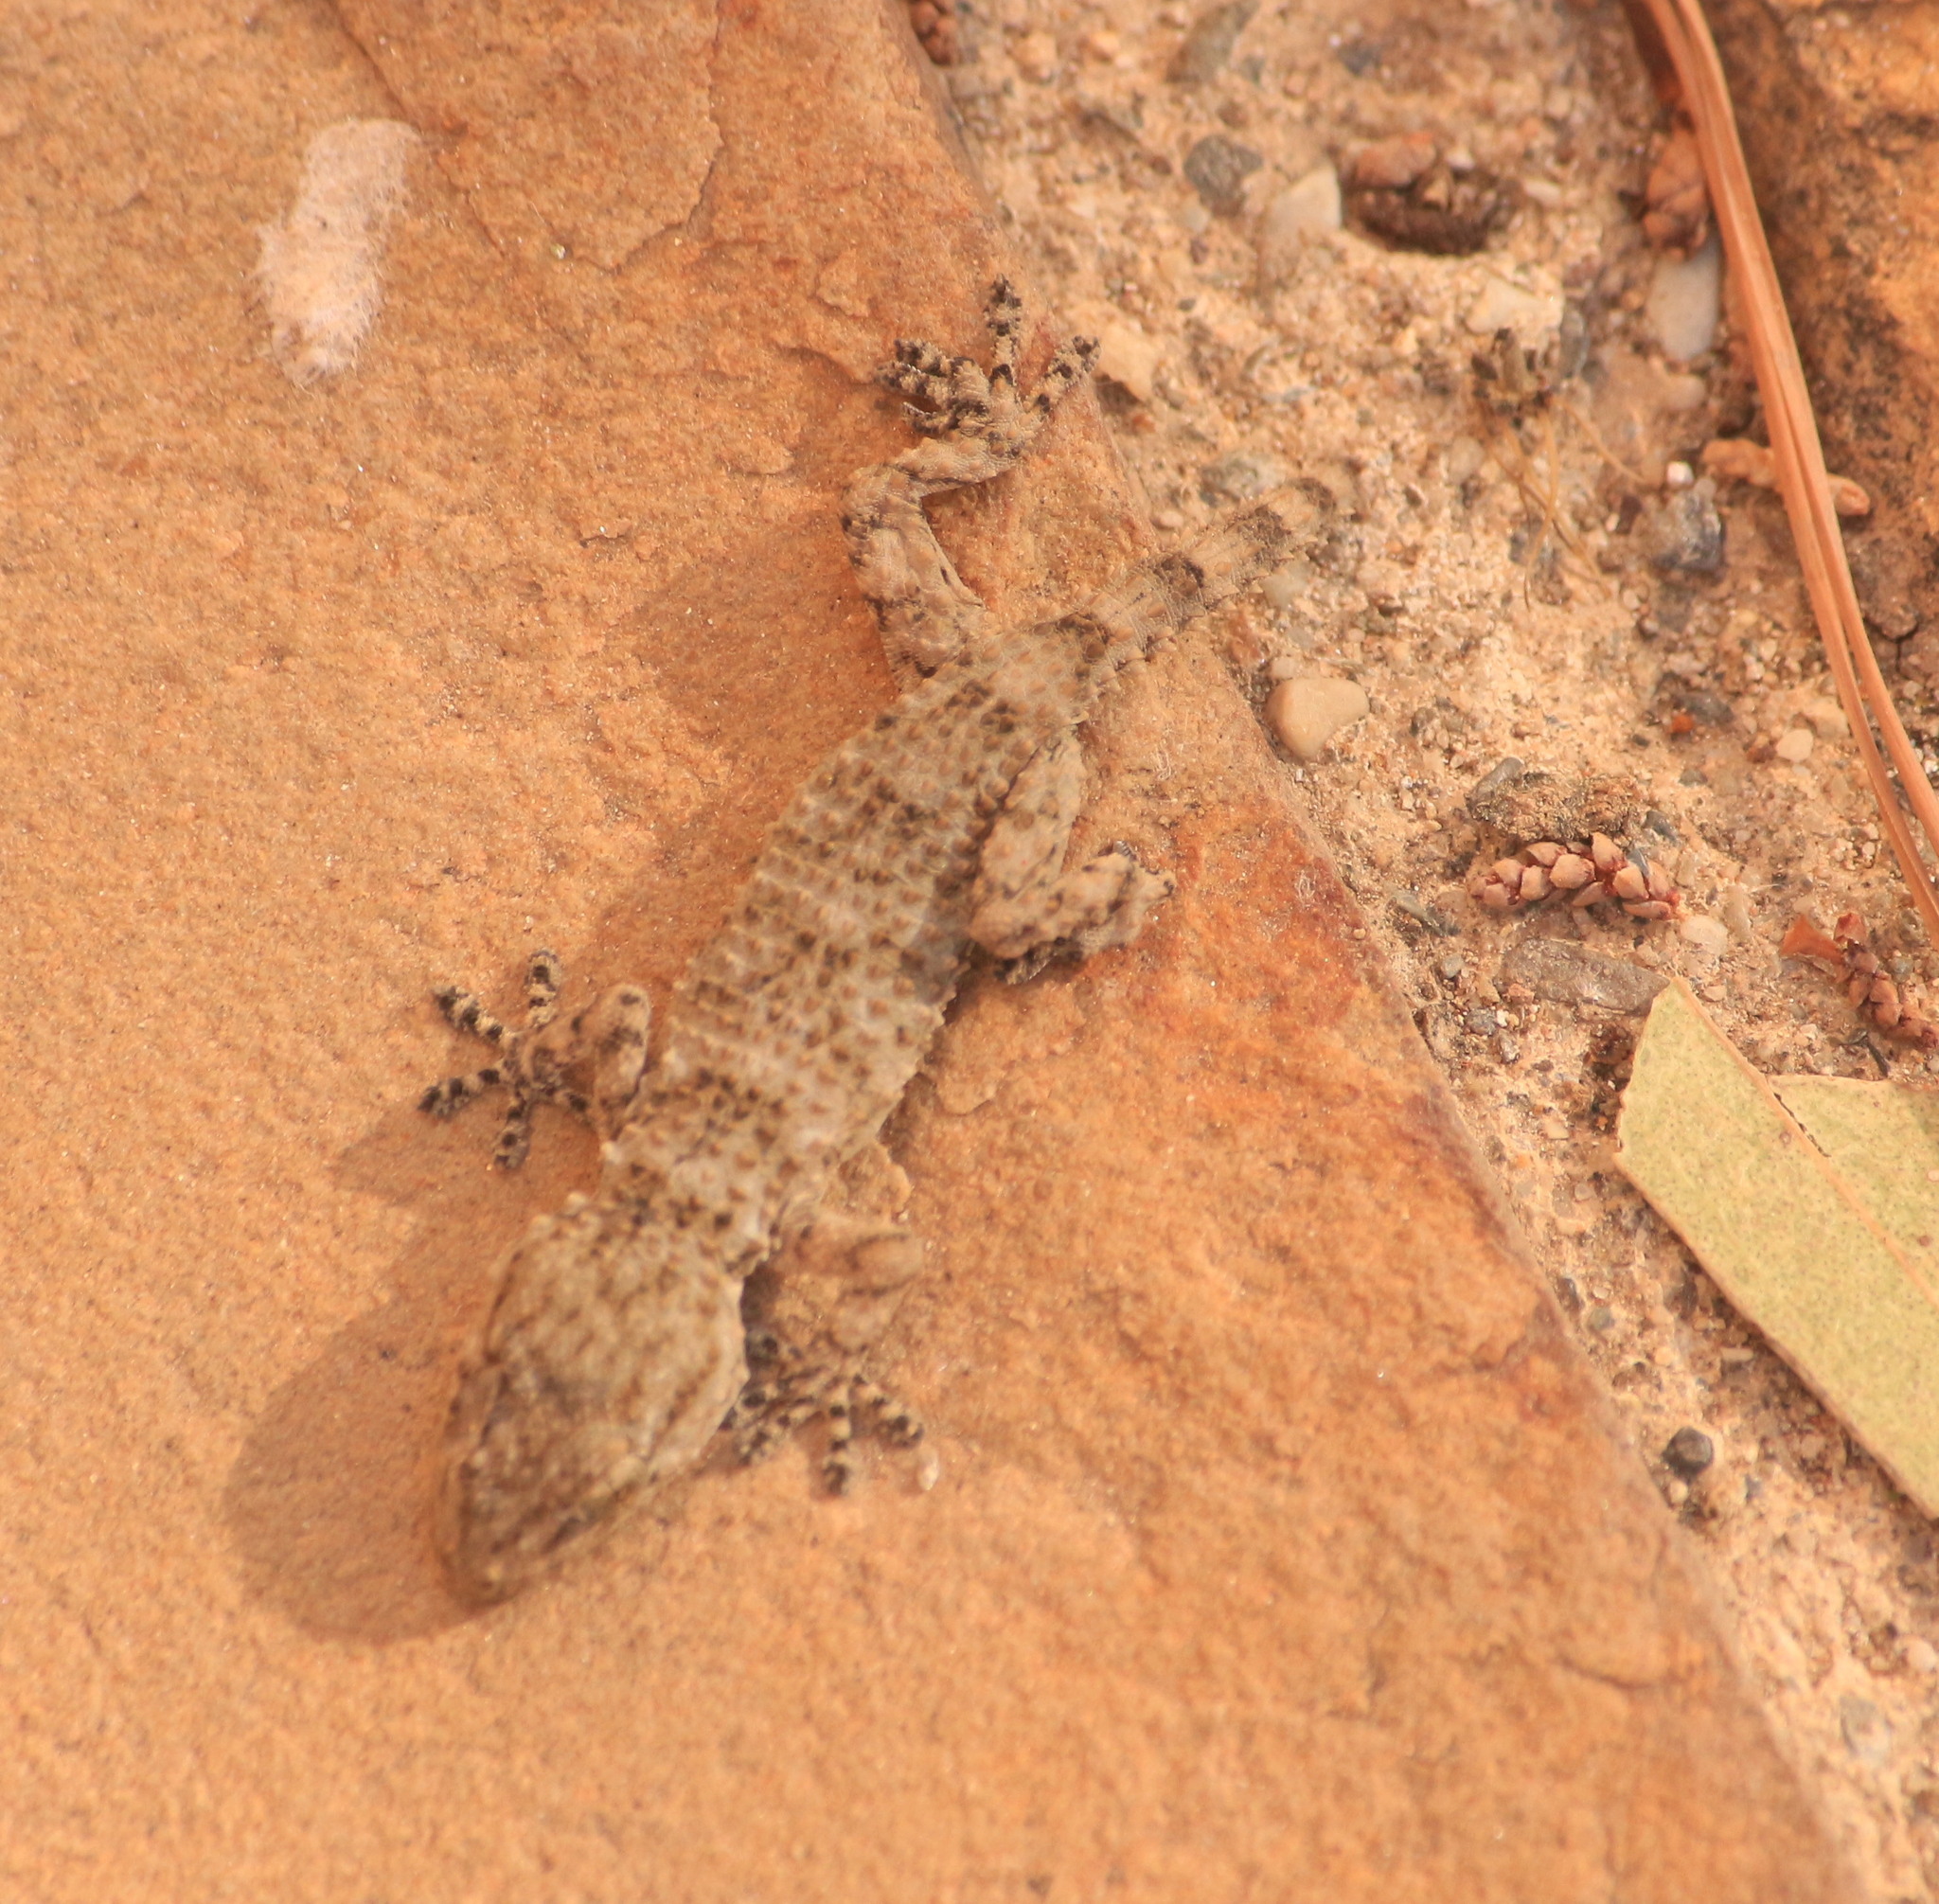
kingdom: Animalia
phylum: Chordata
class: Squamata
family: Phyllodactylidae
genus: Tarentola
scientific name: Tarentola mauritanica
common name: Moorish gecko
